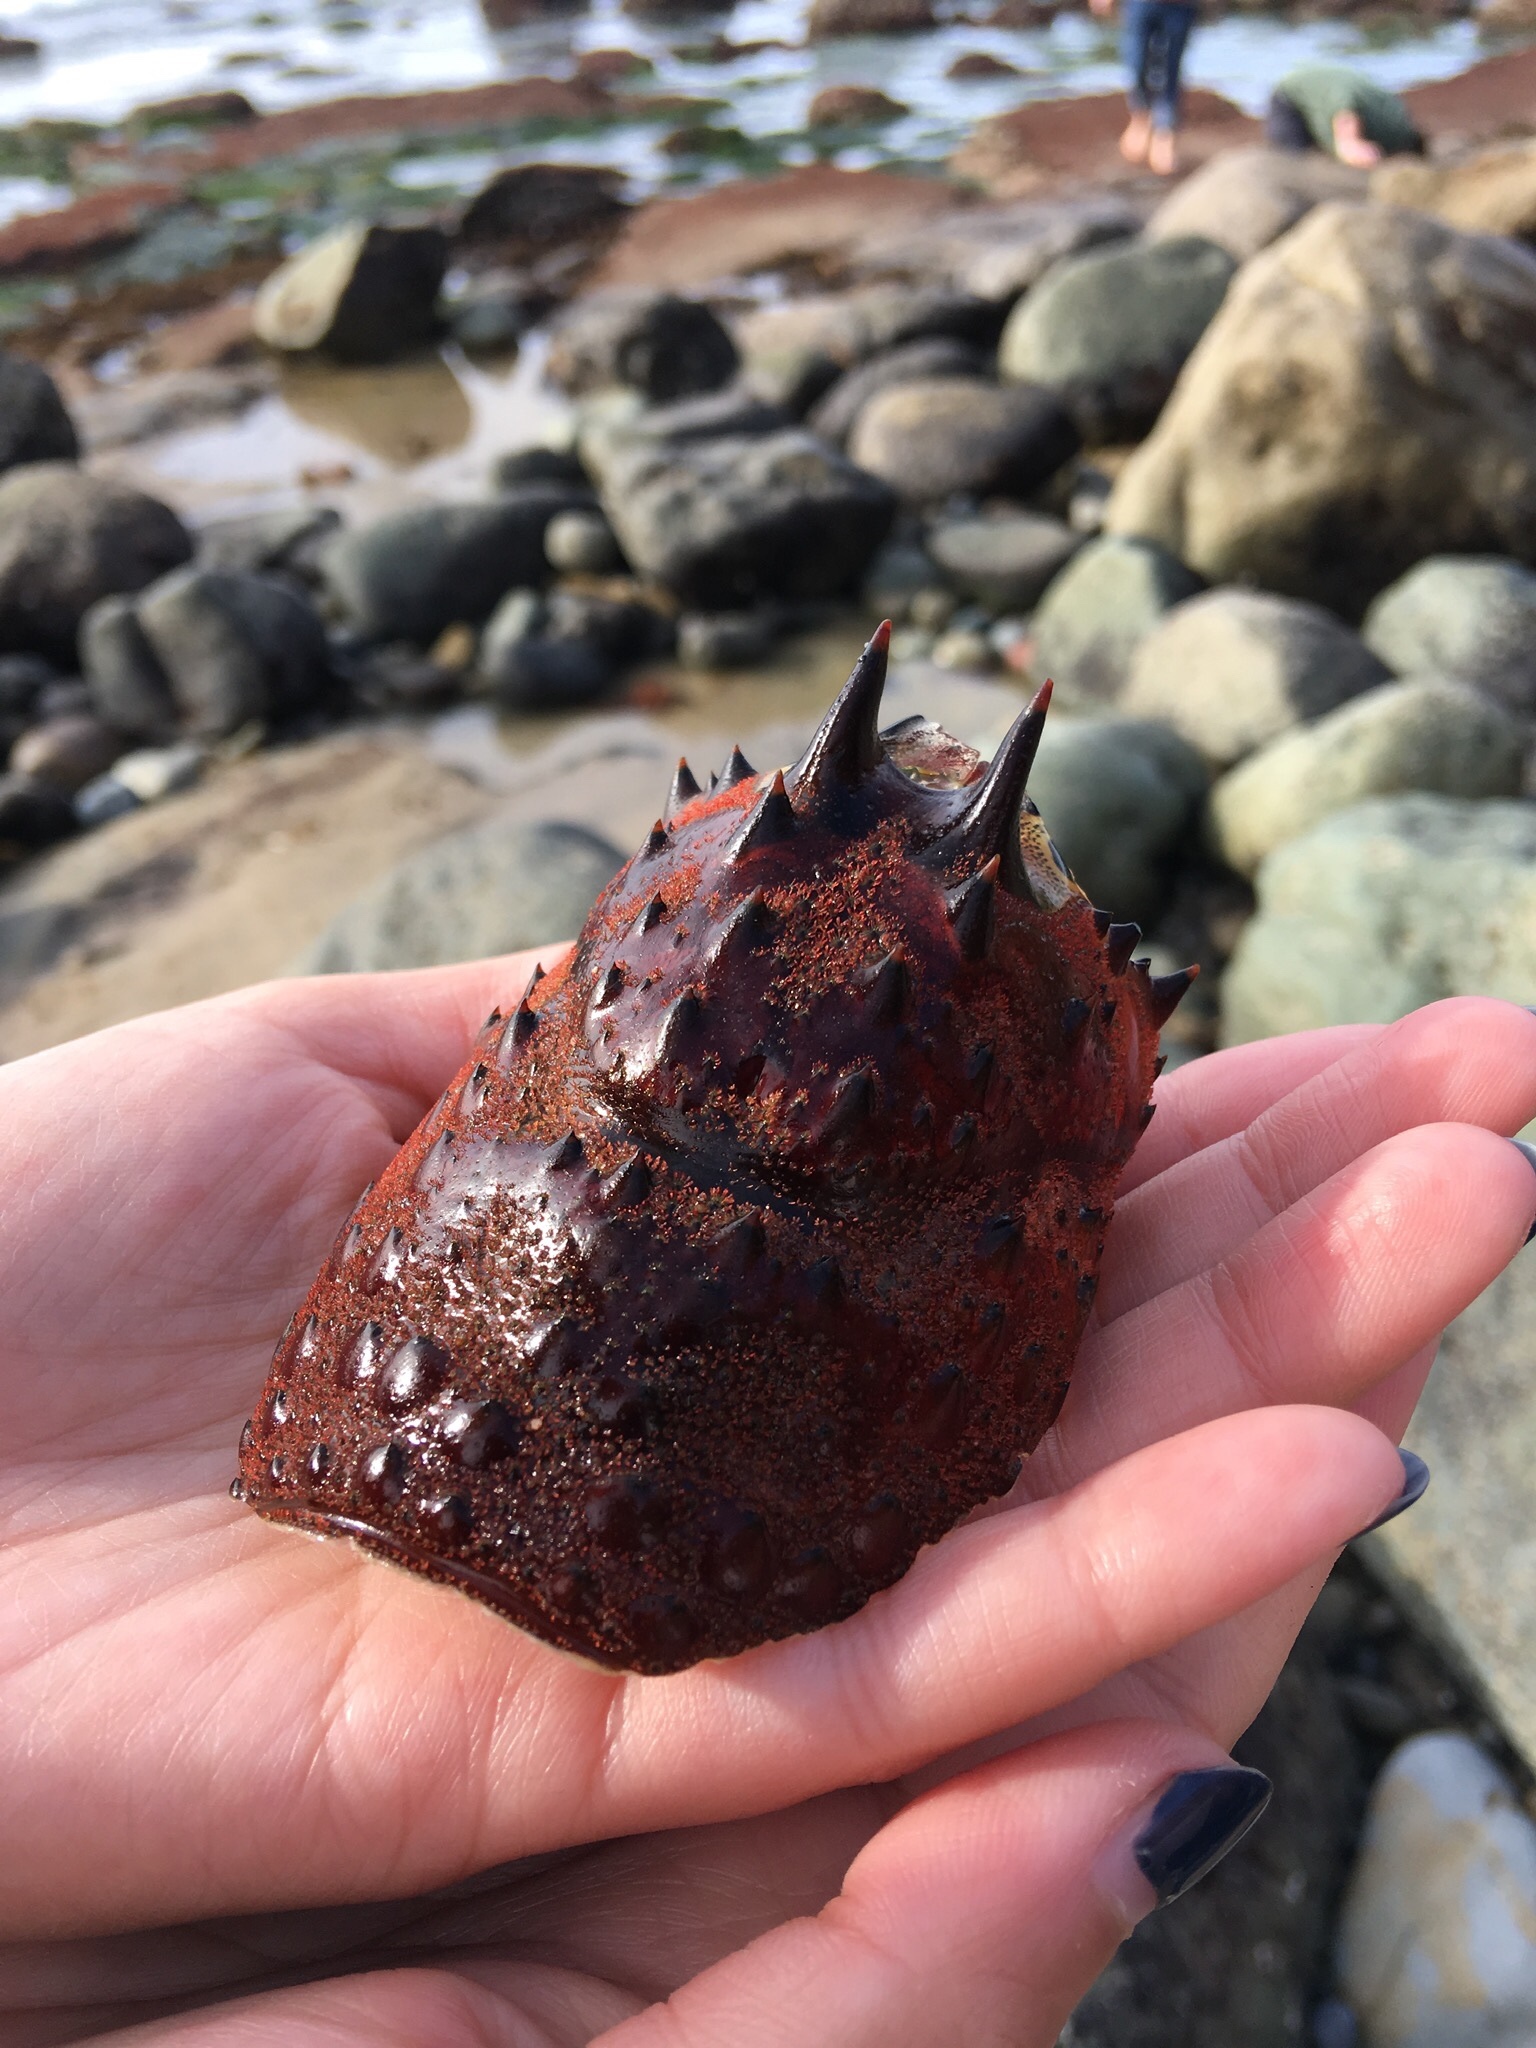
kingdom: Animalia
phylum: Arthropoda
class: Malacostraca
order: Decapoda
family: Palinuridae
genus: Panulirus
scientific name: Panulirus interruptus
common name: California spiny lobster
